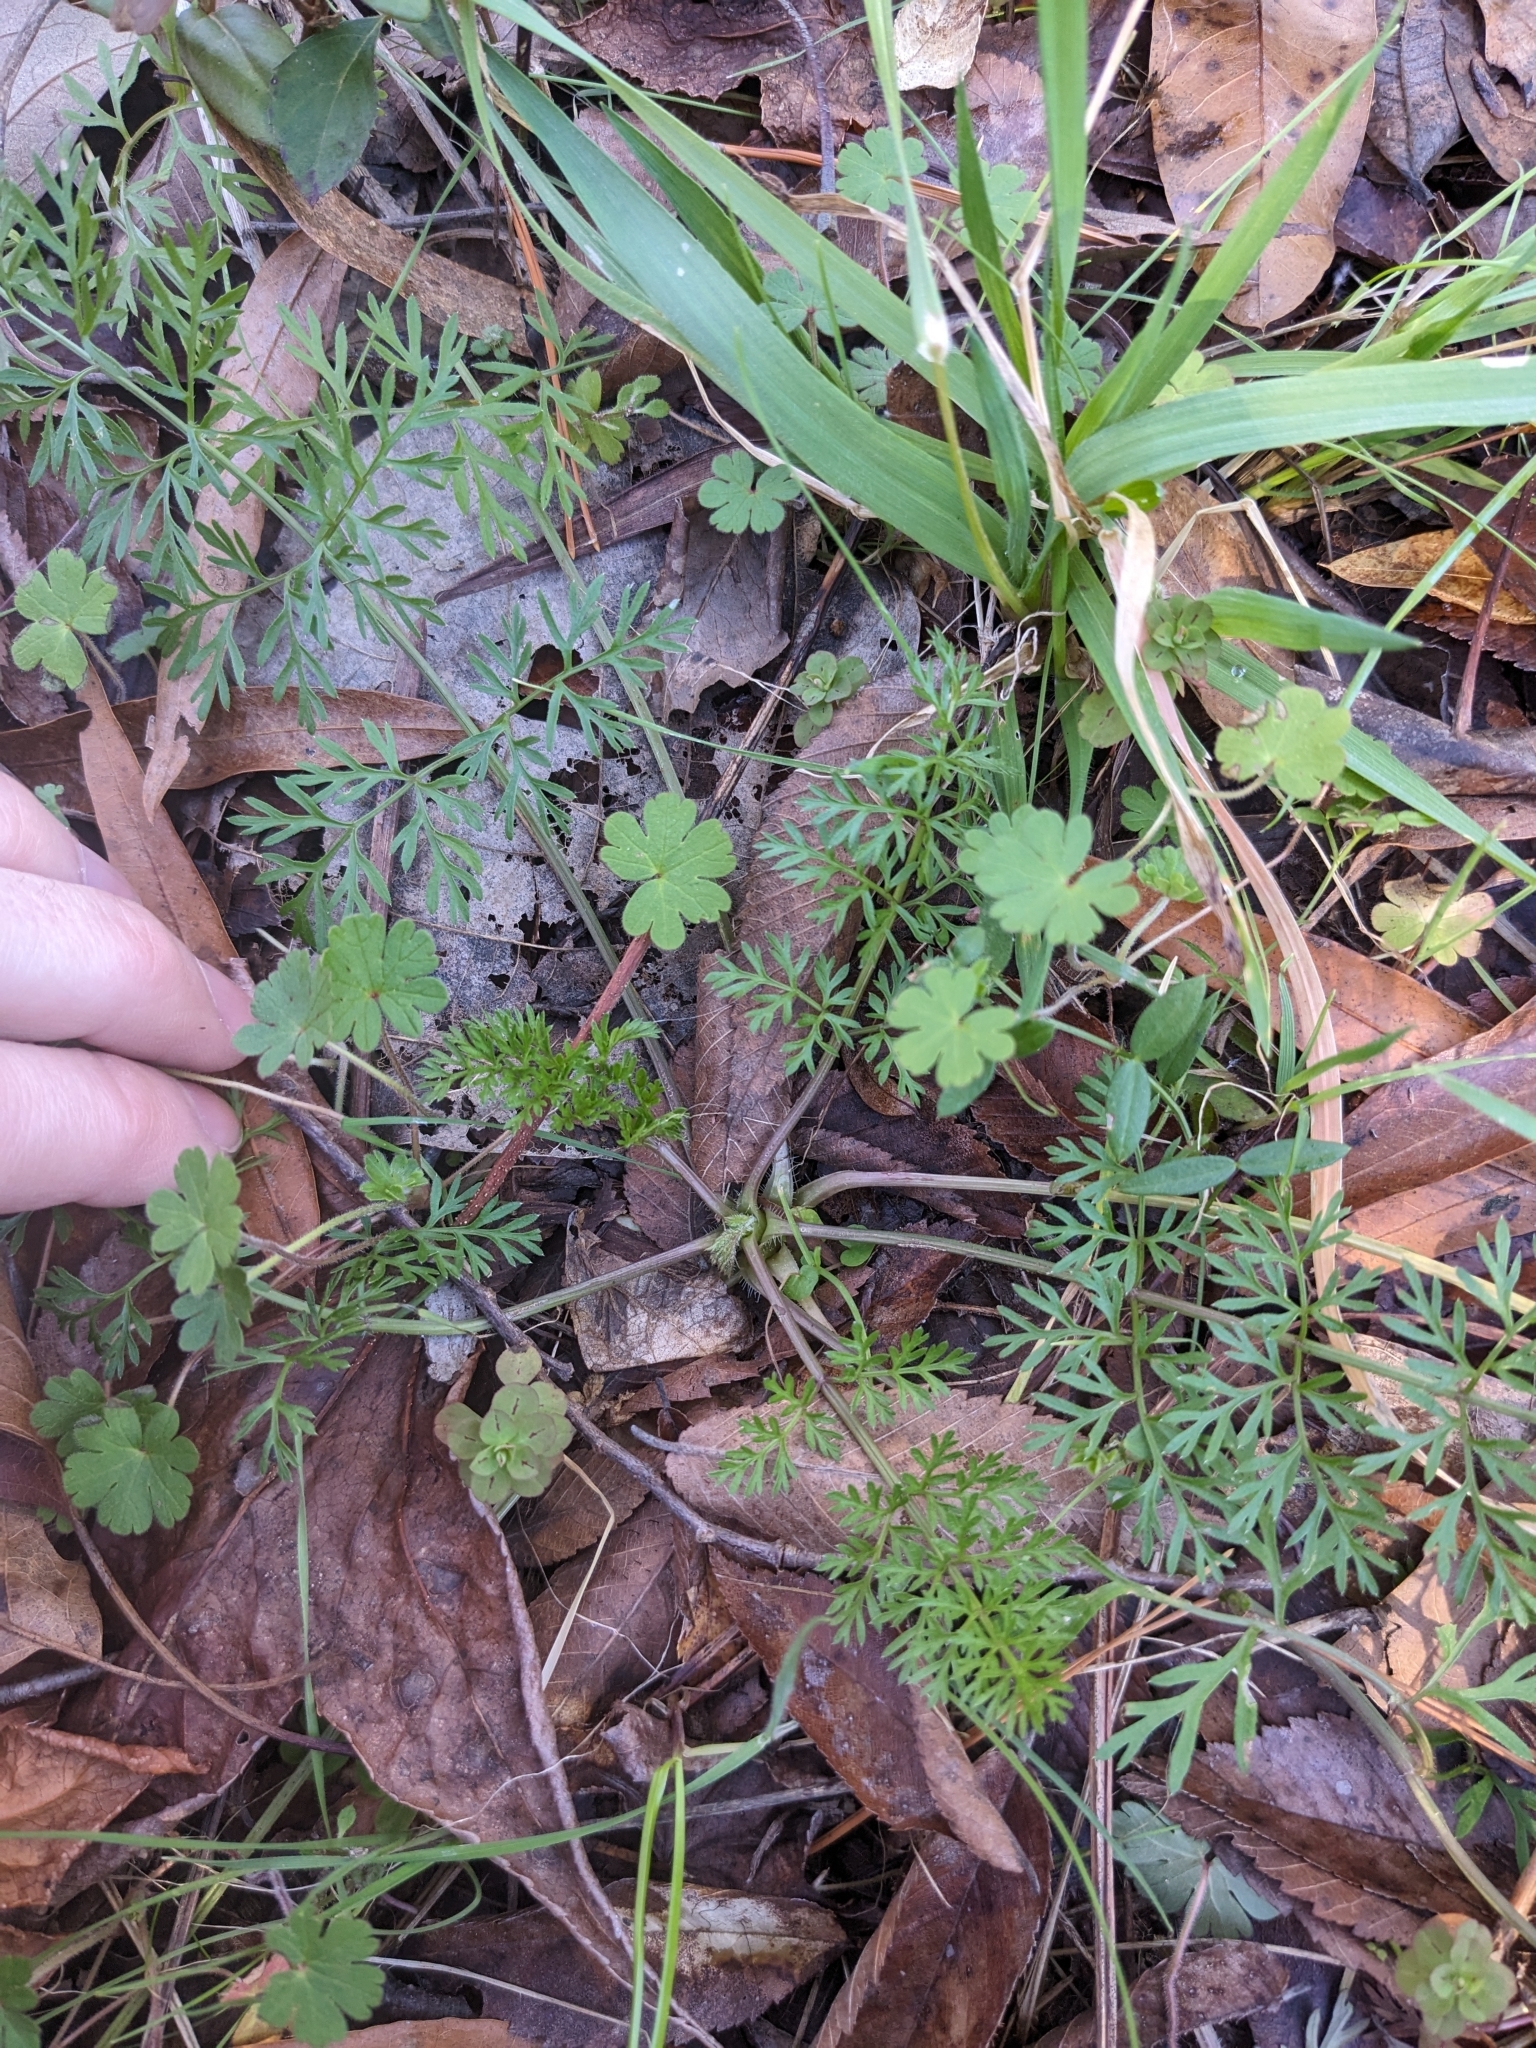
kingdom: Plantae
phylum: Tracheophyta
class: Magnoliopsida
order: Apiales
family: Apiaceae
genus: Daucus
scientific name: Daucus carota
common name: Wild carrot
